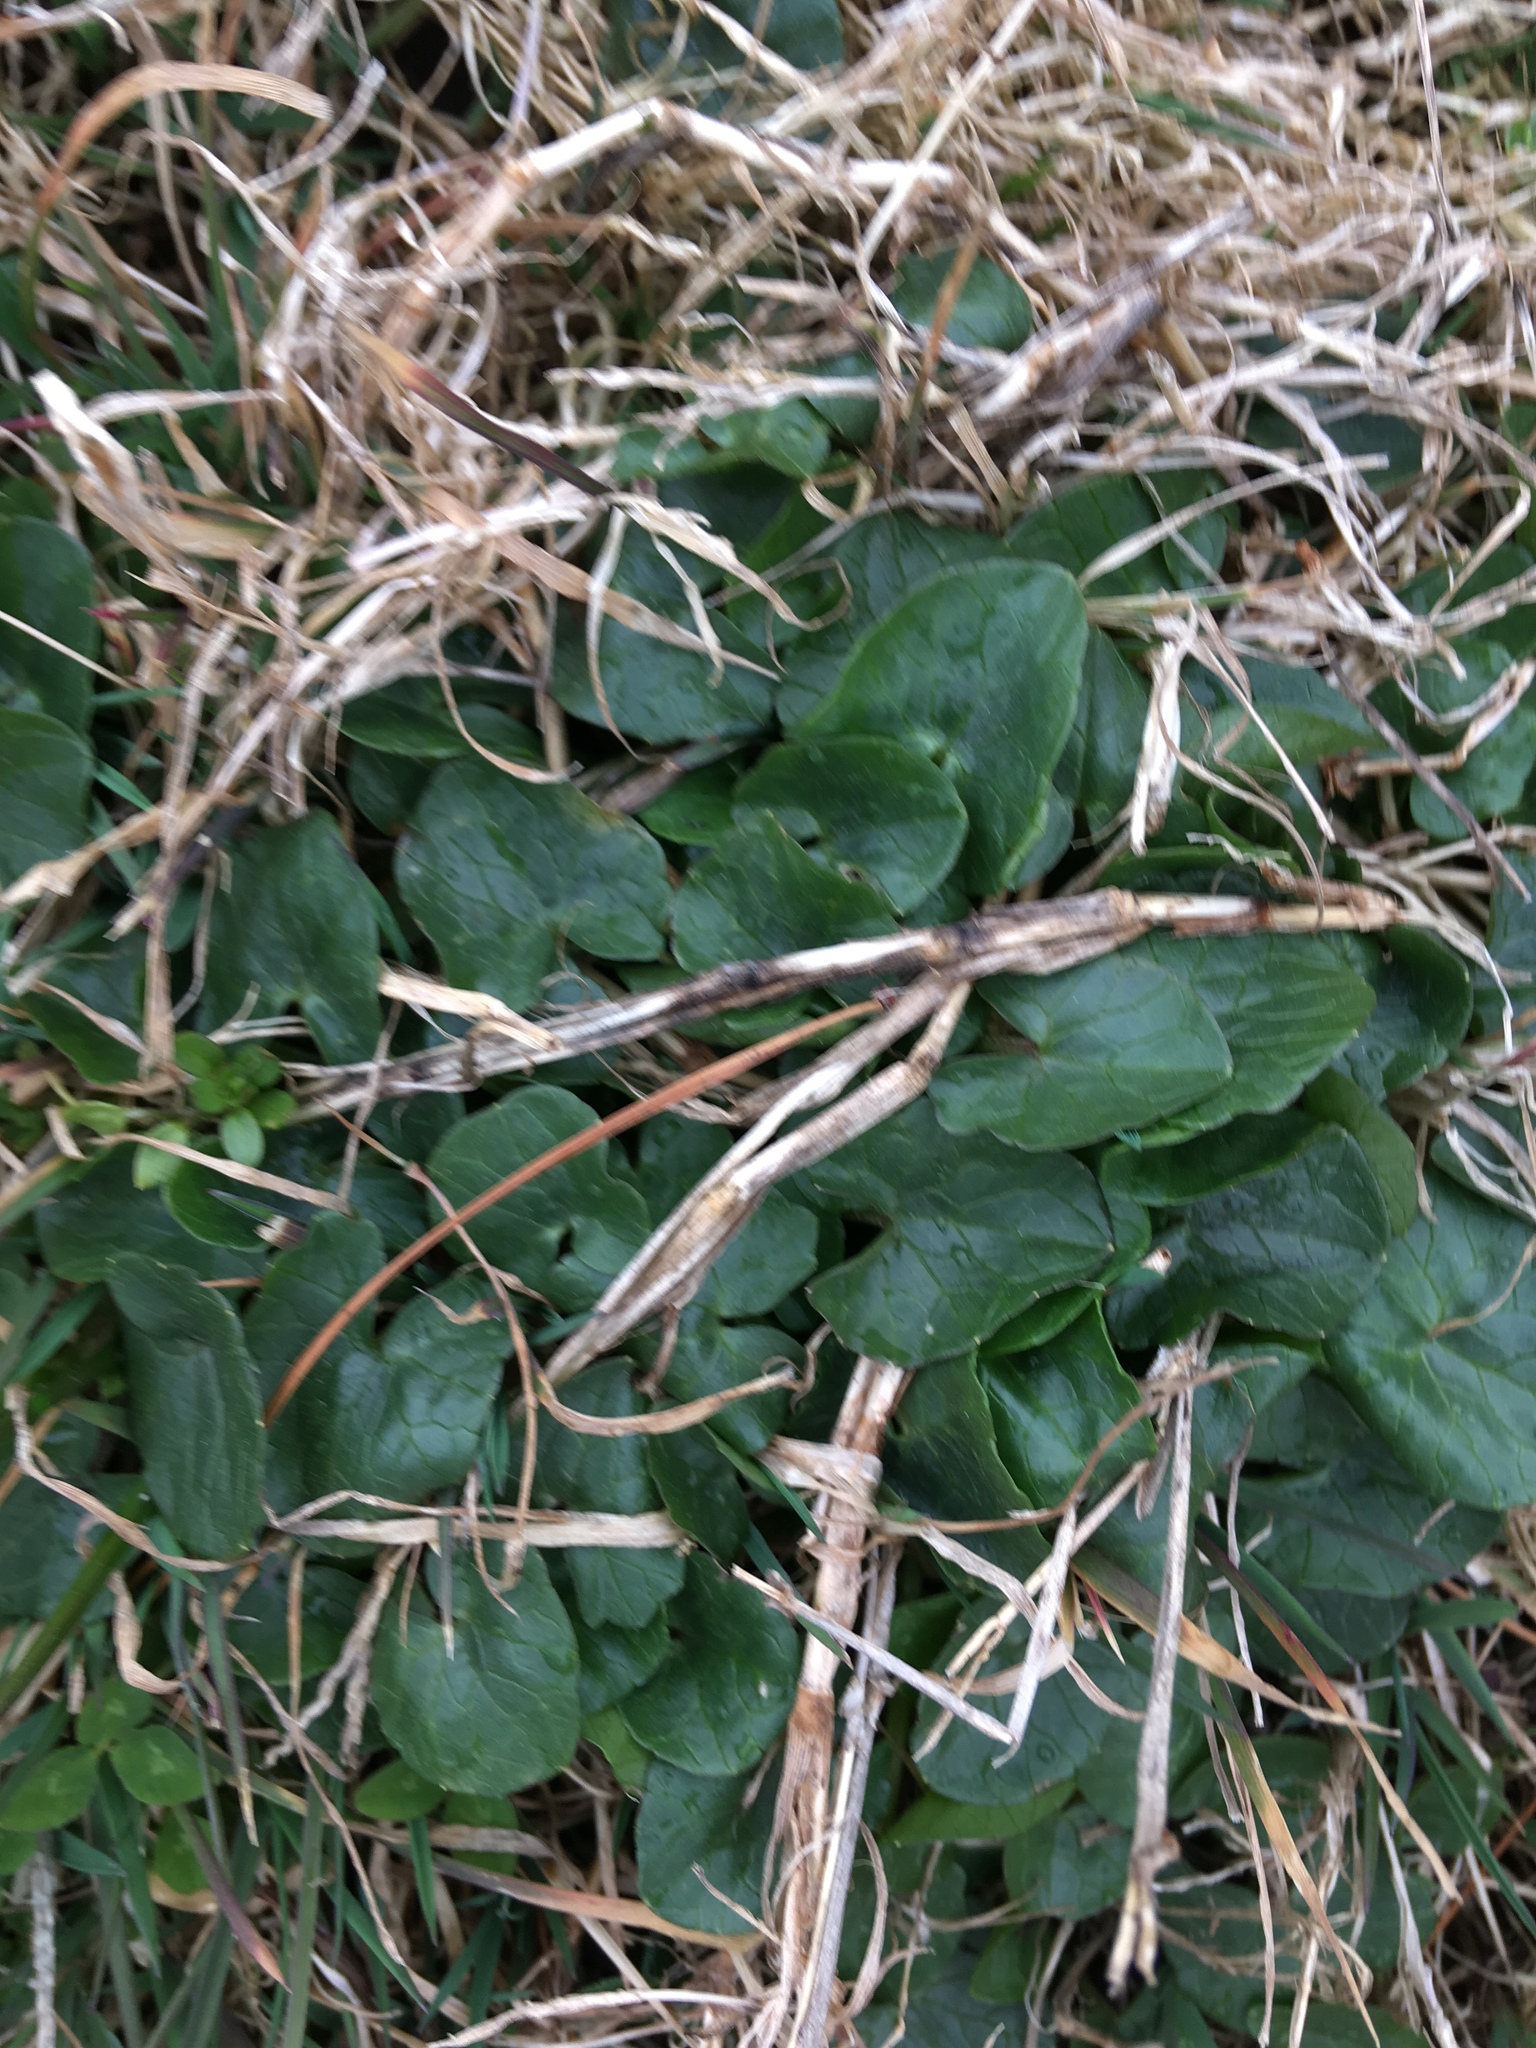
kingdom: Plantae
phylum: Tracheophyta
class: Magnoliopsida
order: Ranunculales
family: Ranunculaceae
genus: Ficaria
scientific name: Ficaria verna
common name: Lesser celandine
